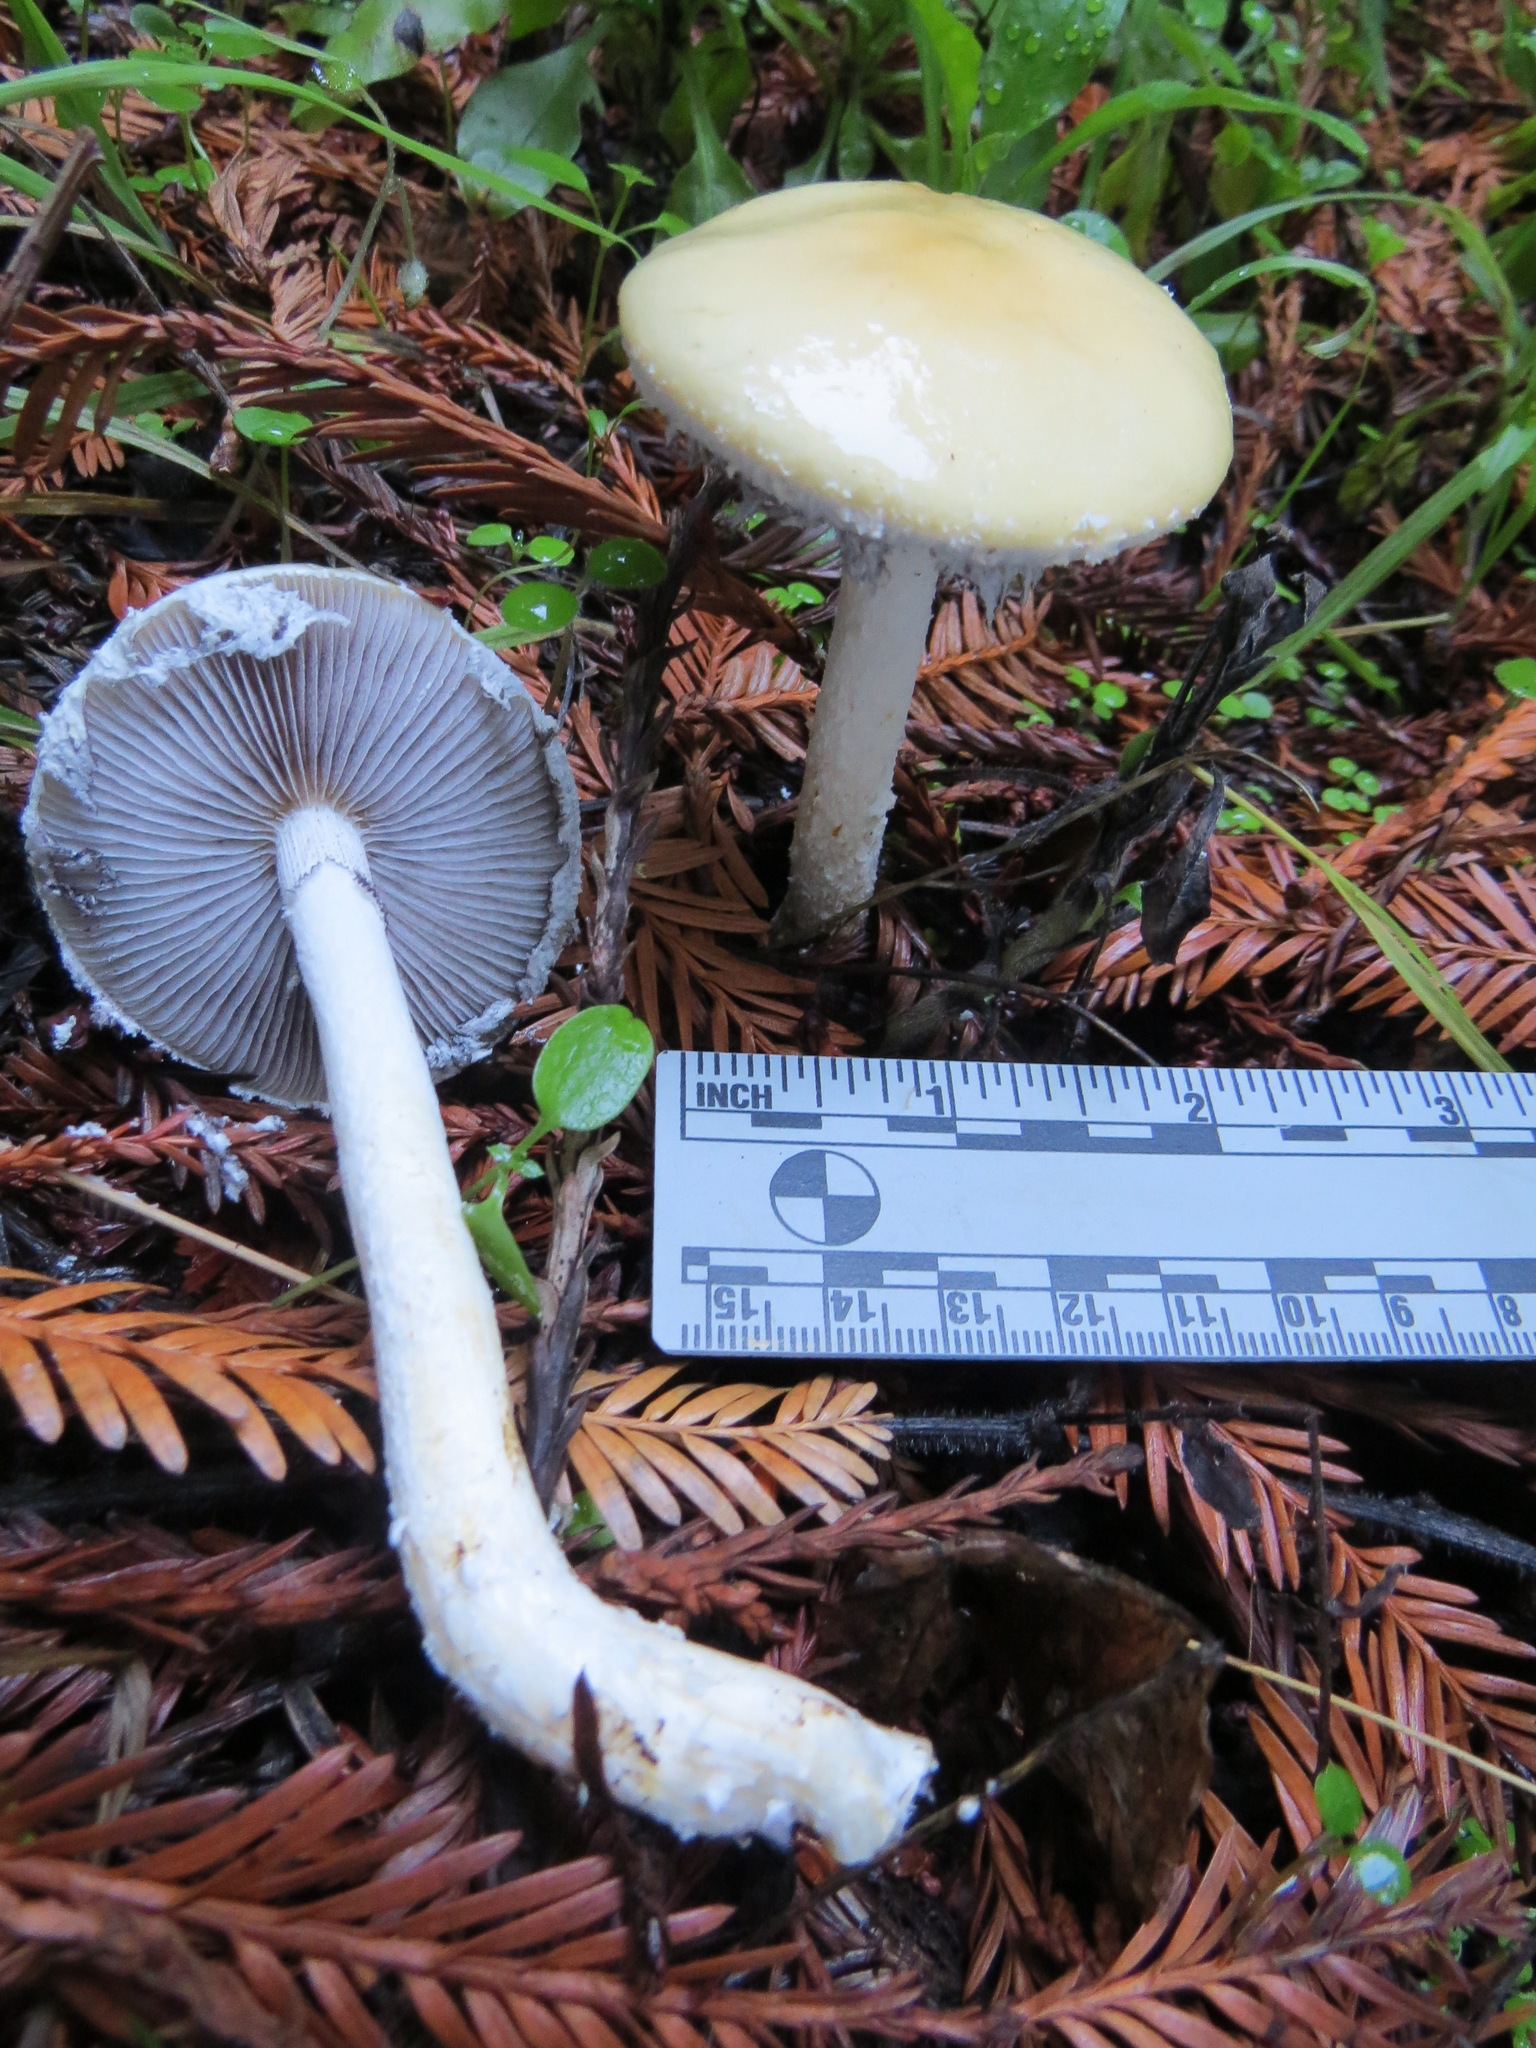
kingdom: Fungi
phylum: Basidiomycota
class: Agaricomycetes
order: Agaricales
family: Strophariaceae
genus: Stropharia
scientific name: Stropharia ambigua
